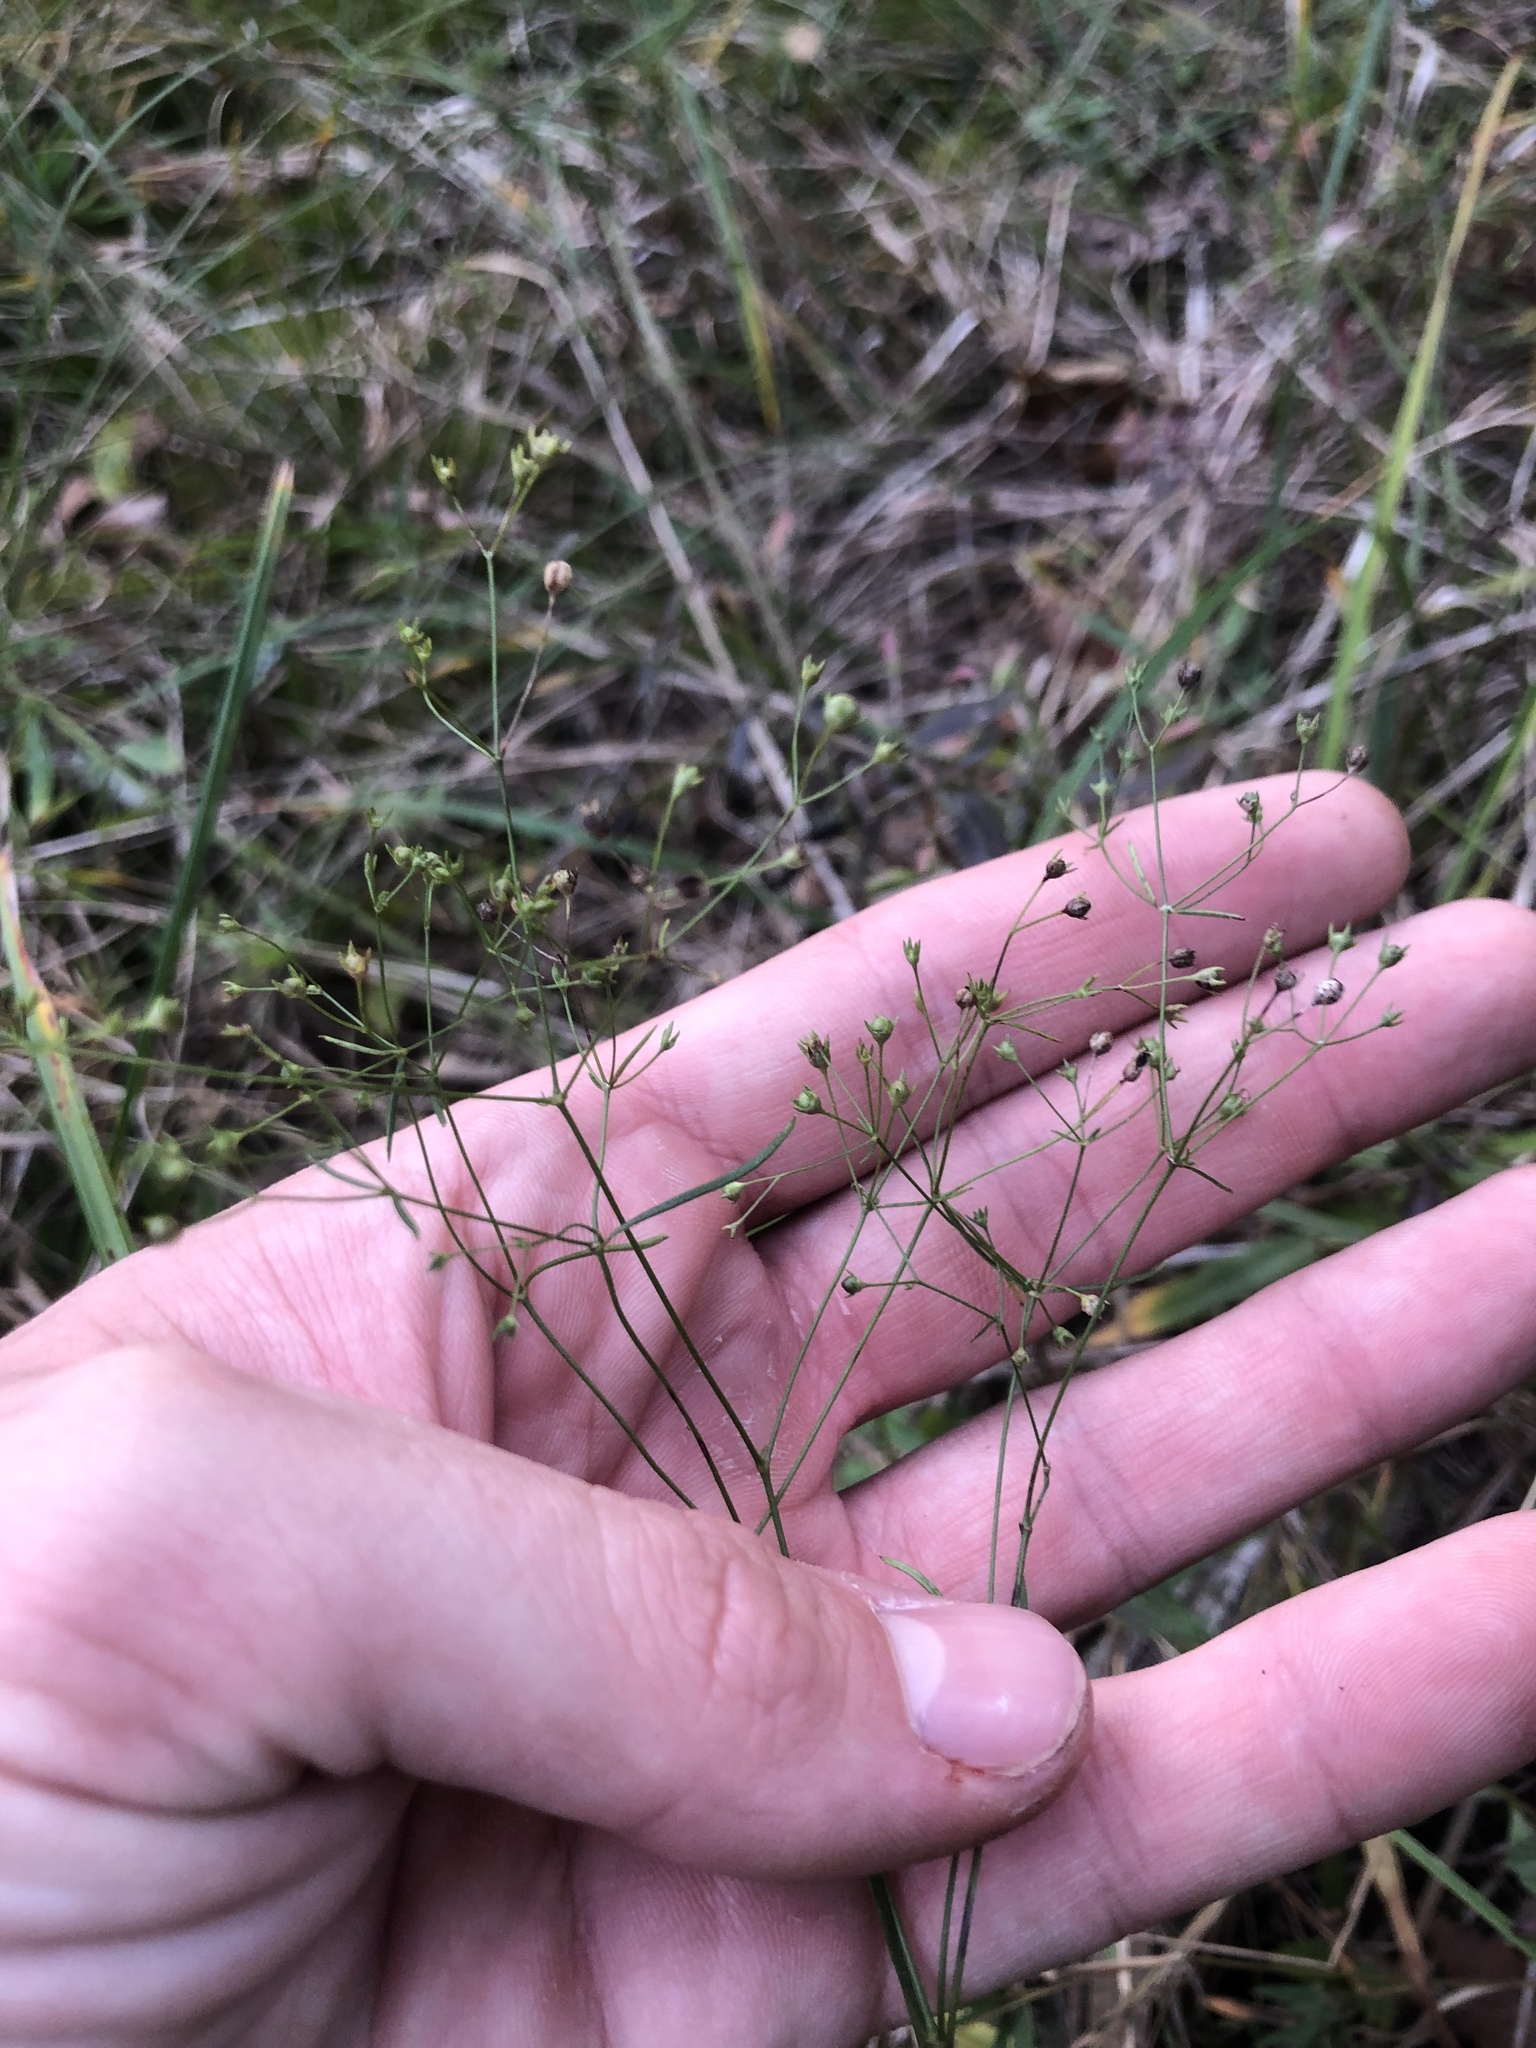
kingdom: Plantae
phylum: Tracheophyta
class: Magnoliopsida
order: Gentianales
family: Rubiaceae
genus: Houstonia
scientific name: Houstonia longifolia
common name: Long-leaved bluets
